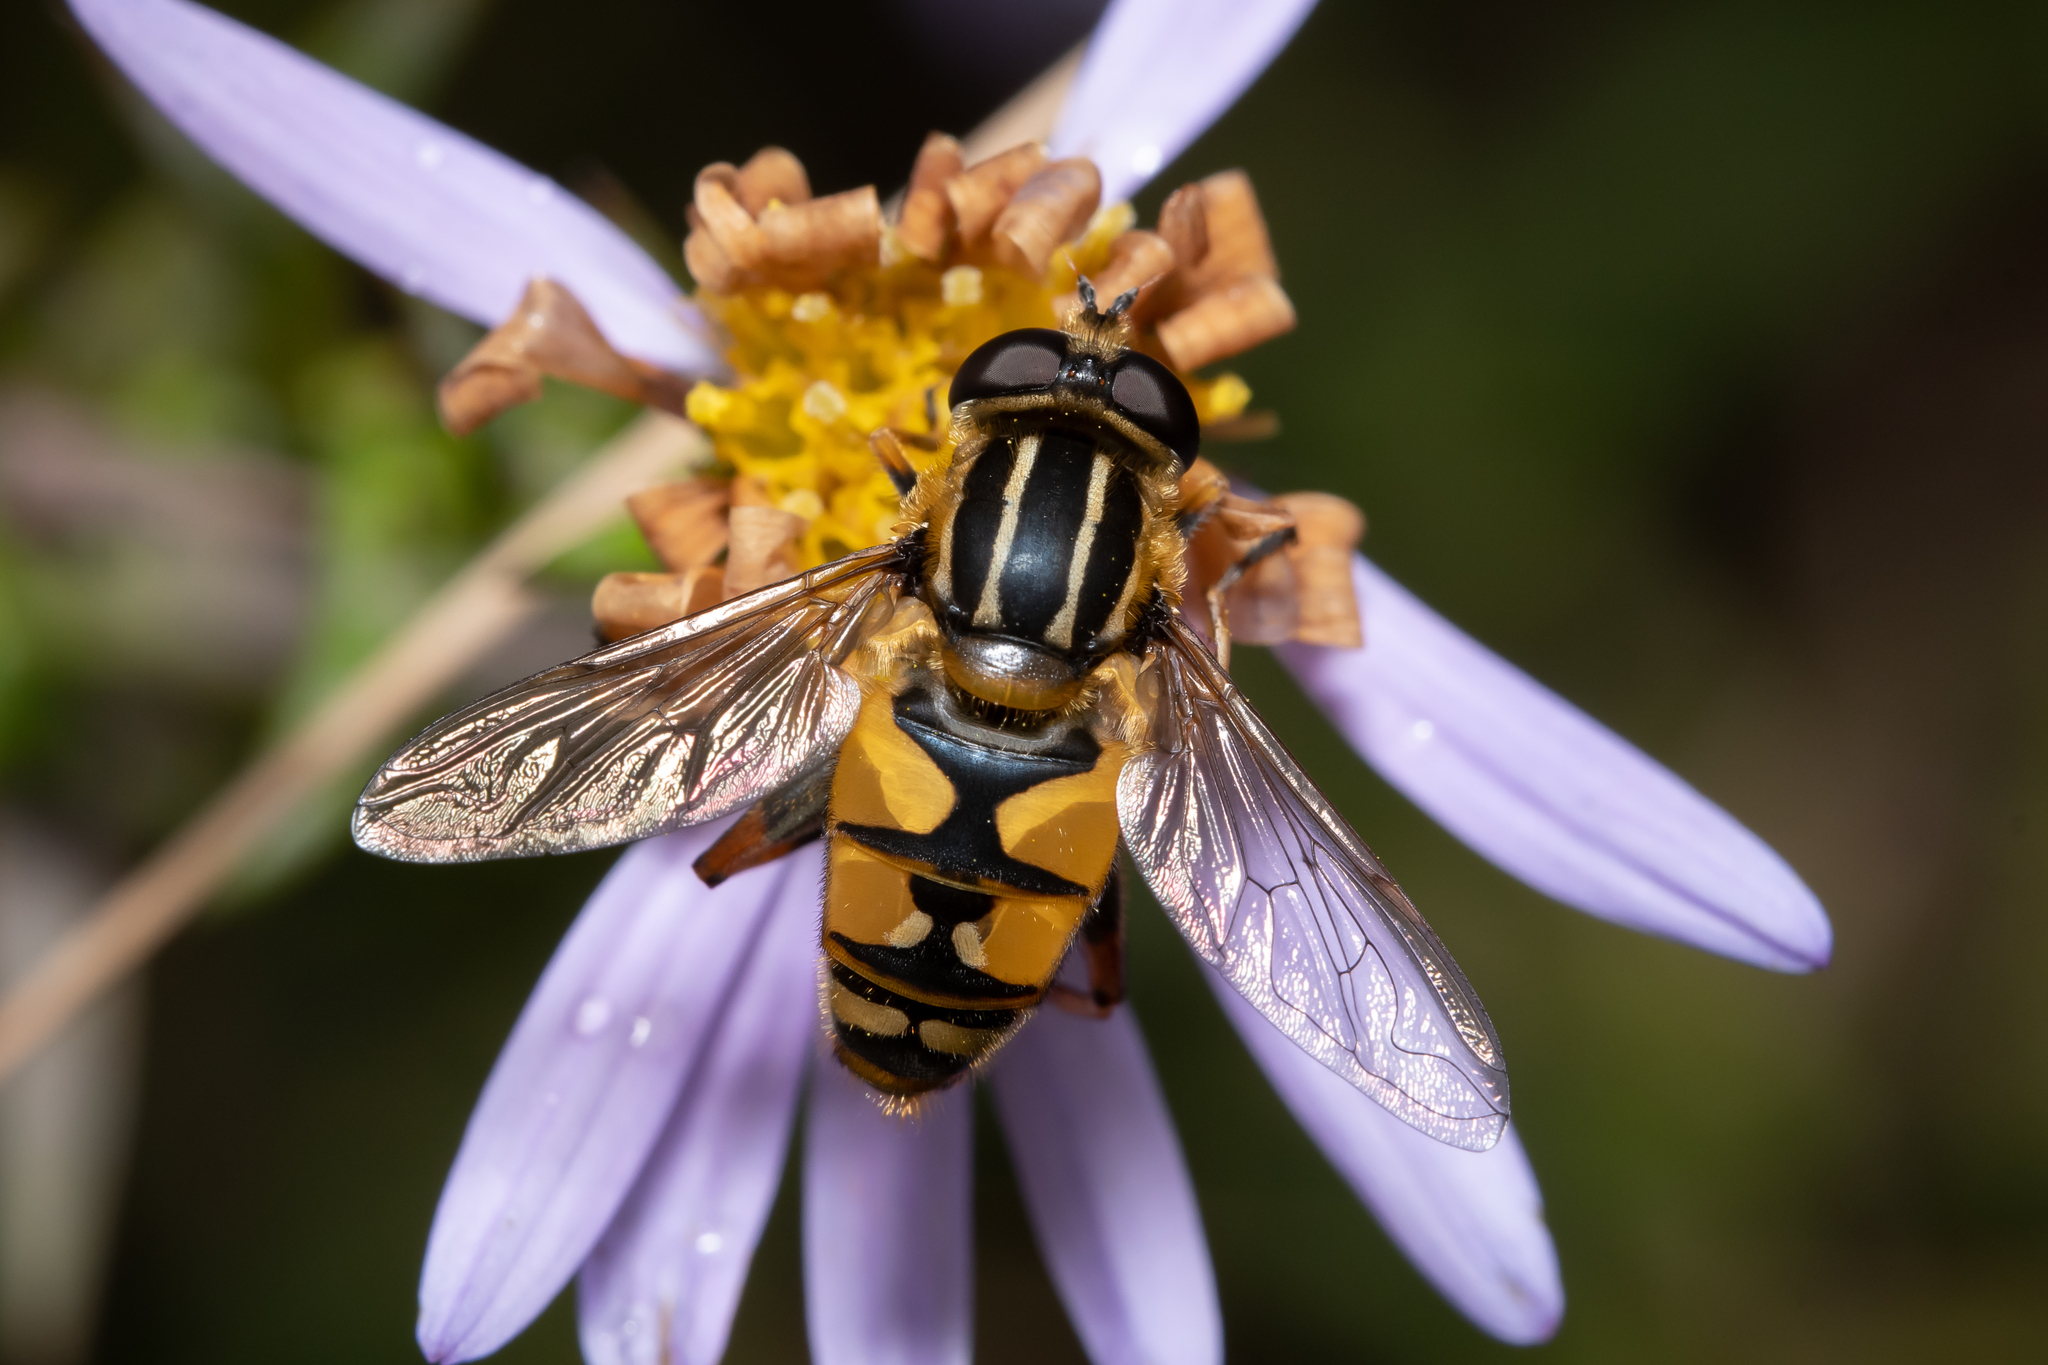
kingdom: Animalia
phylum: Arthropoda
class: Insecta
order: Diptera
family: Syrphidae
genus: Helophilus
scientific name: Helophilus pendulus
